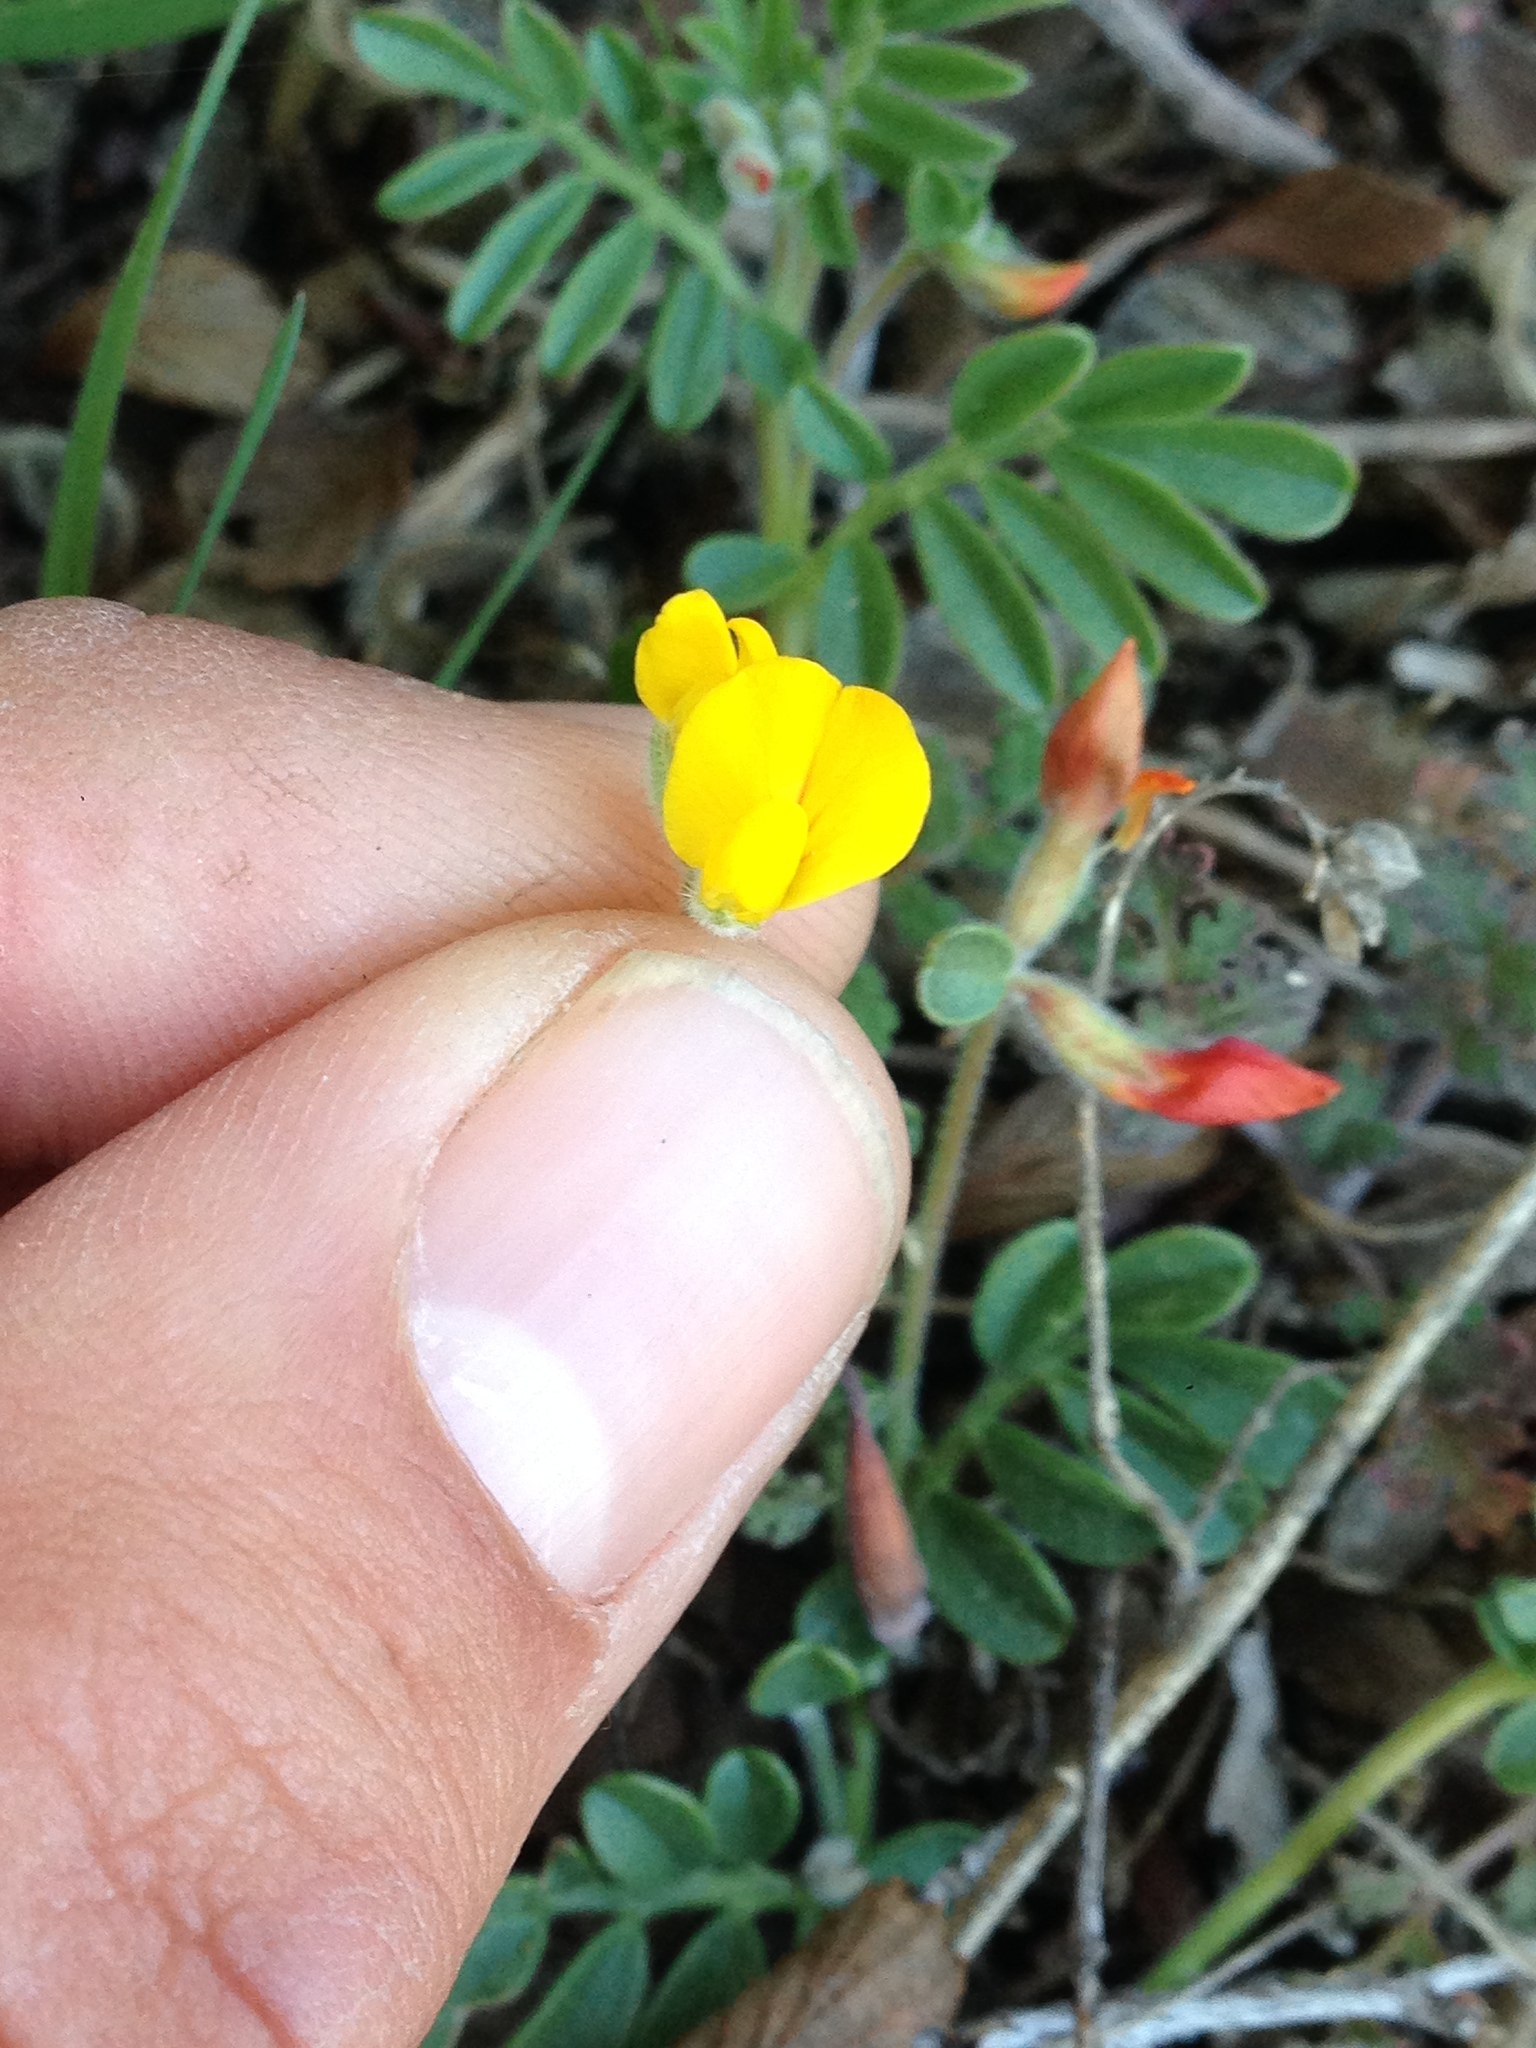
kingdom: Plantae
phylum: Tracheophyta
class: Magnoliopsida
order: Fabales
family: Fabaceae
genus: Acmispon
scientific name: Acmispon strigosus
